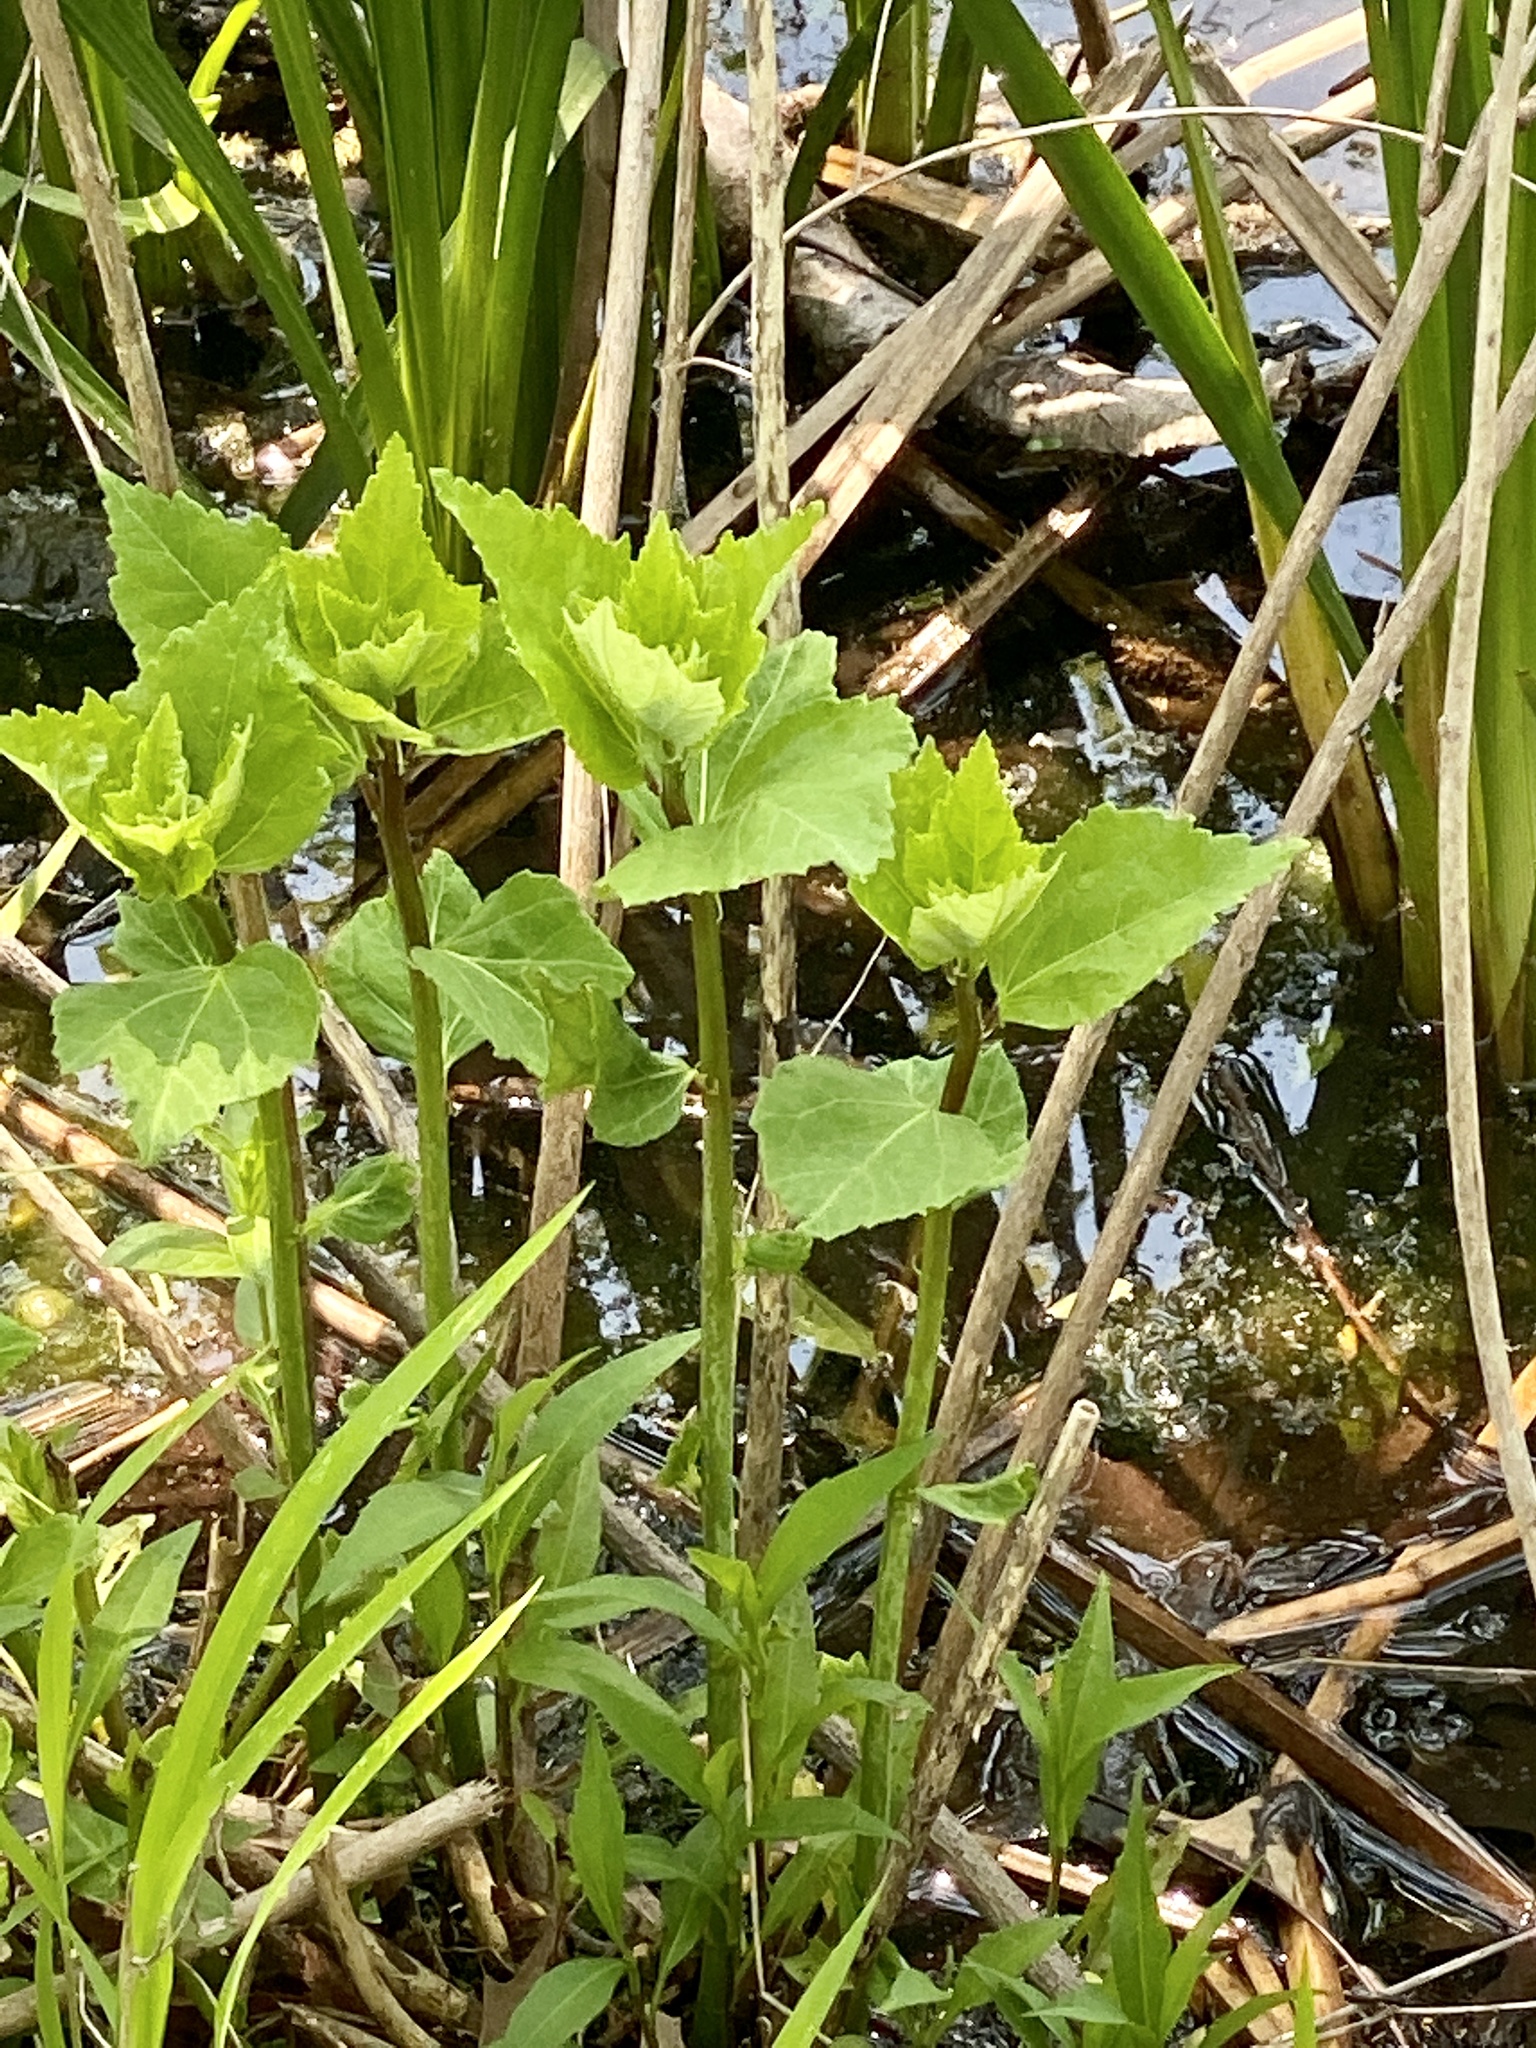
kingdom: Plantae
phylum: Tracheophyta
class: Magnoliopsida
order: Malvales
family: Malvaceae
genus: Hibiscus
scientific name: Hibiscus moscheutos
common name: Common rose-mallow
